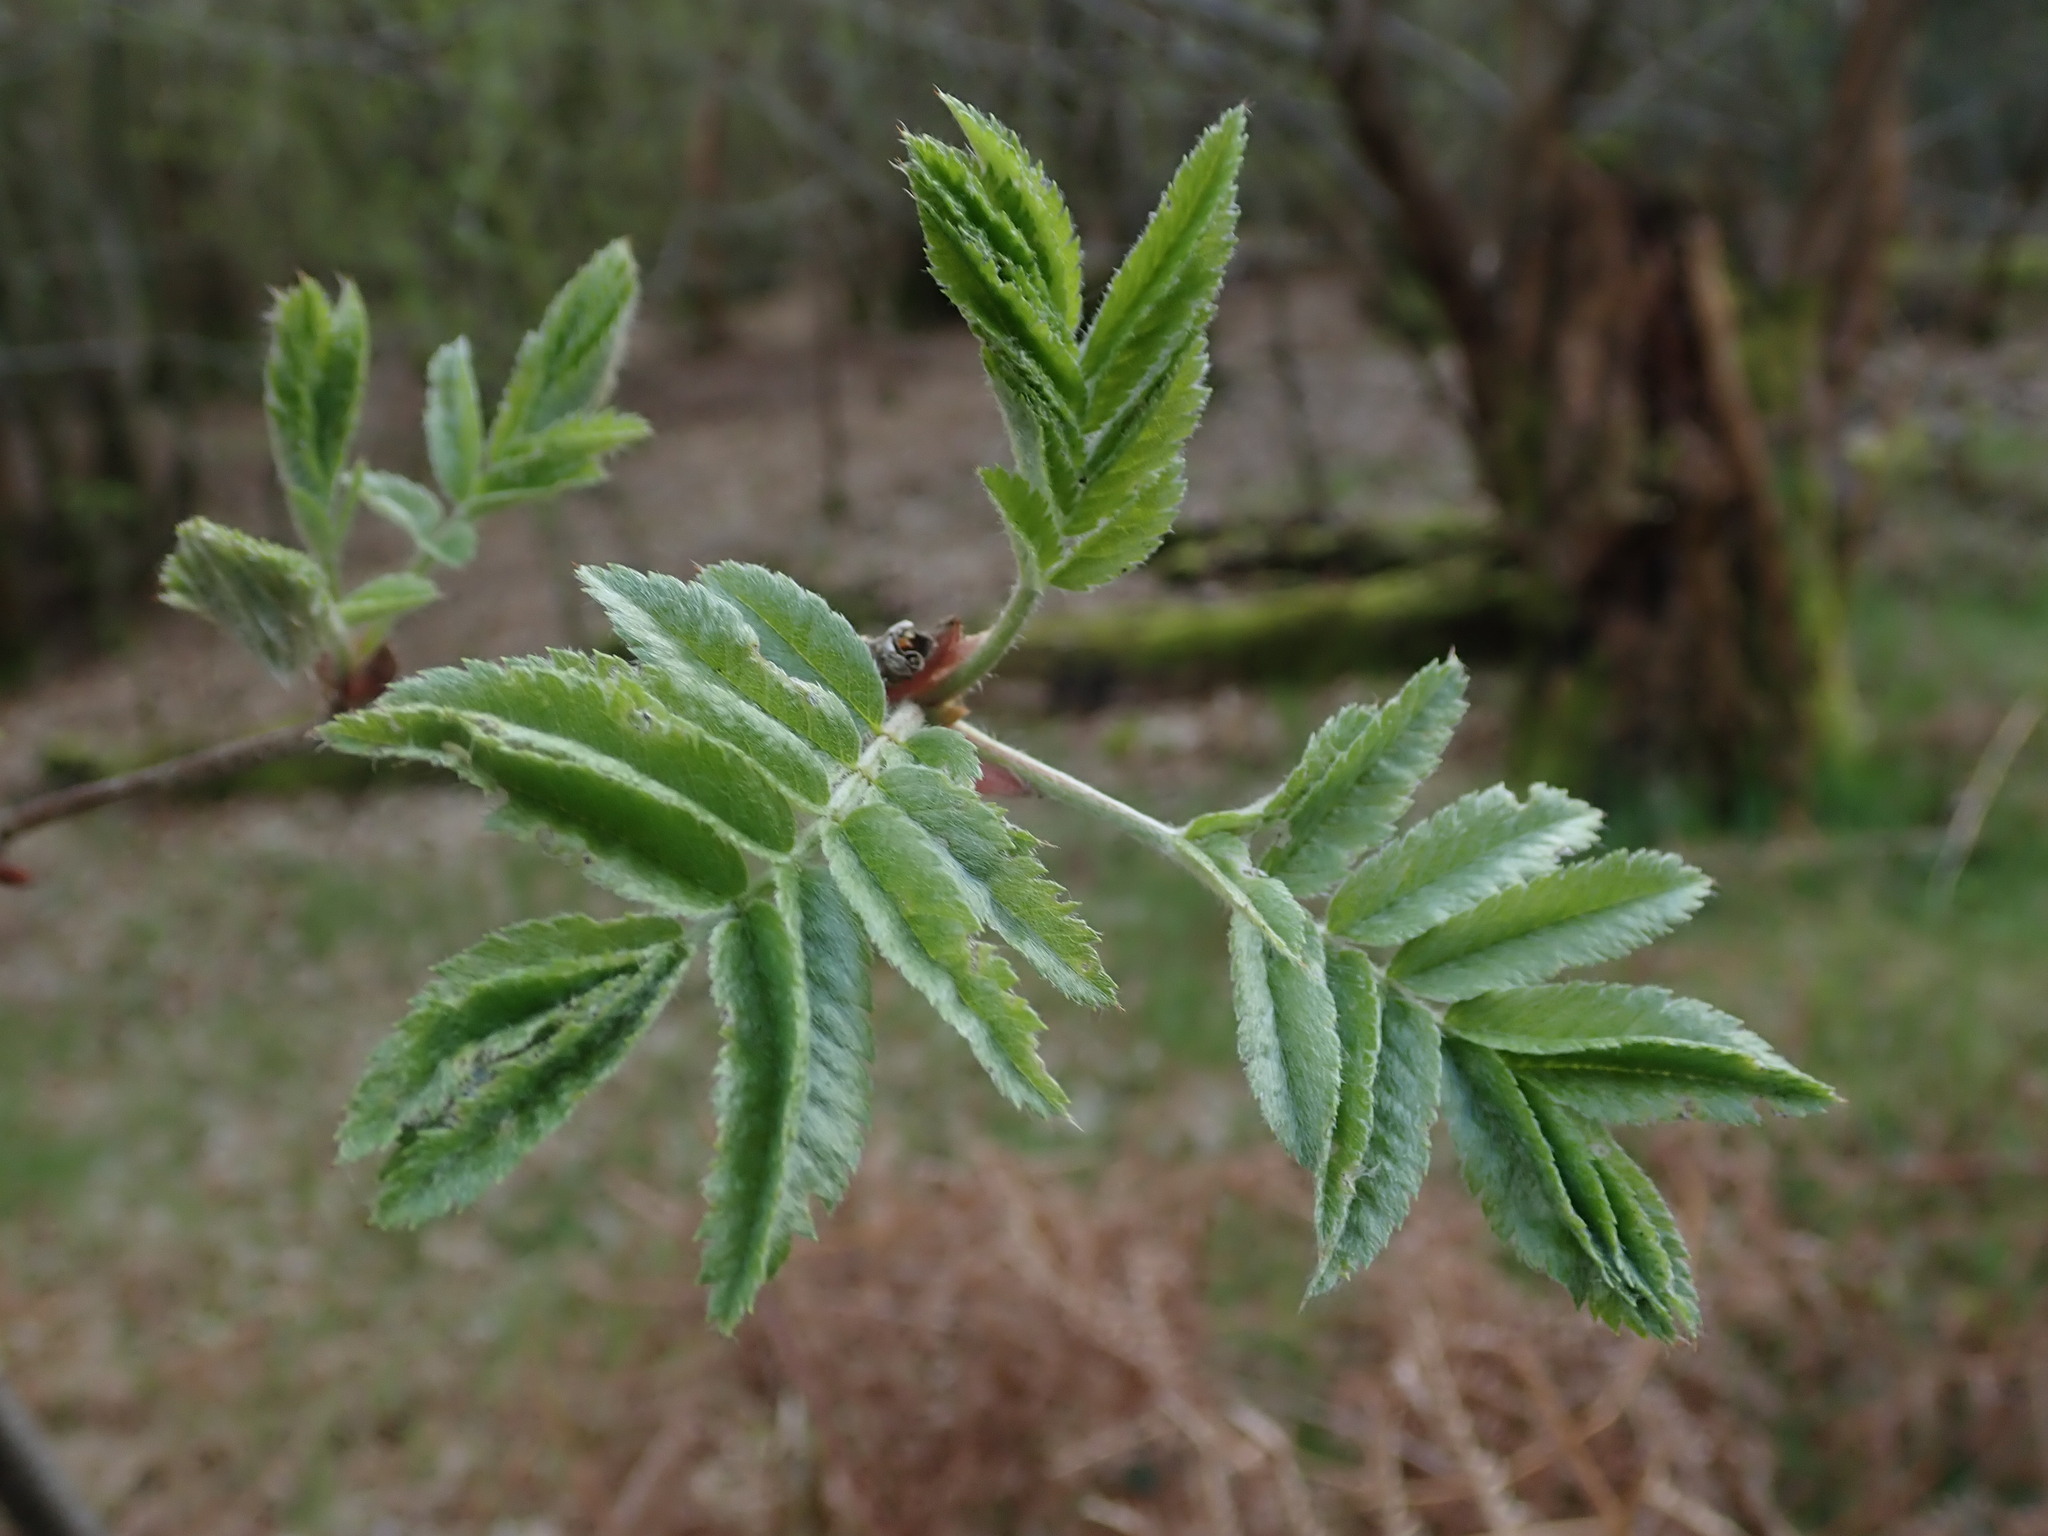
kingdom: Plantae
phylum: Tracheophyta
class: Magnoliopsida
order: Rosales
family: Rosaceae
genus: Sorbus
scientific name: Sorbus aucuparia
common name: Rowan
